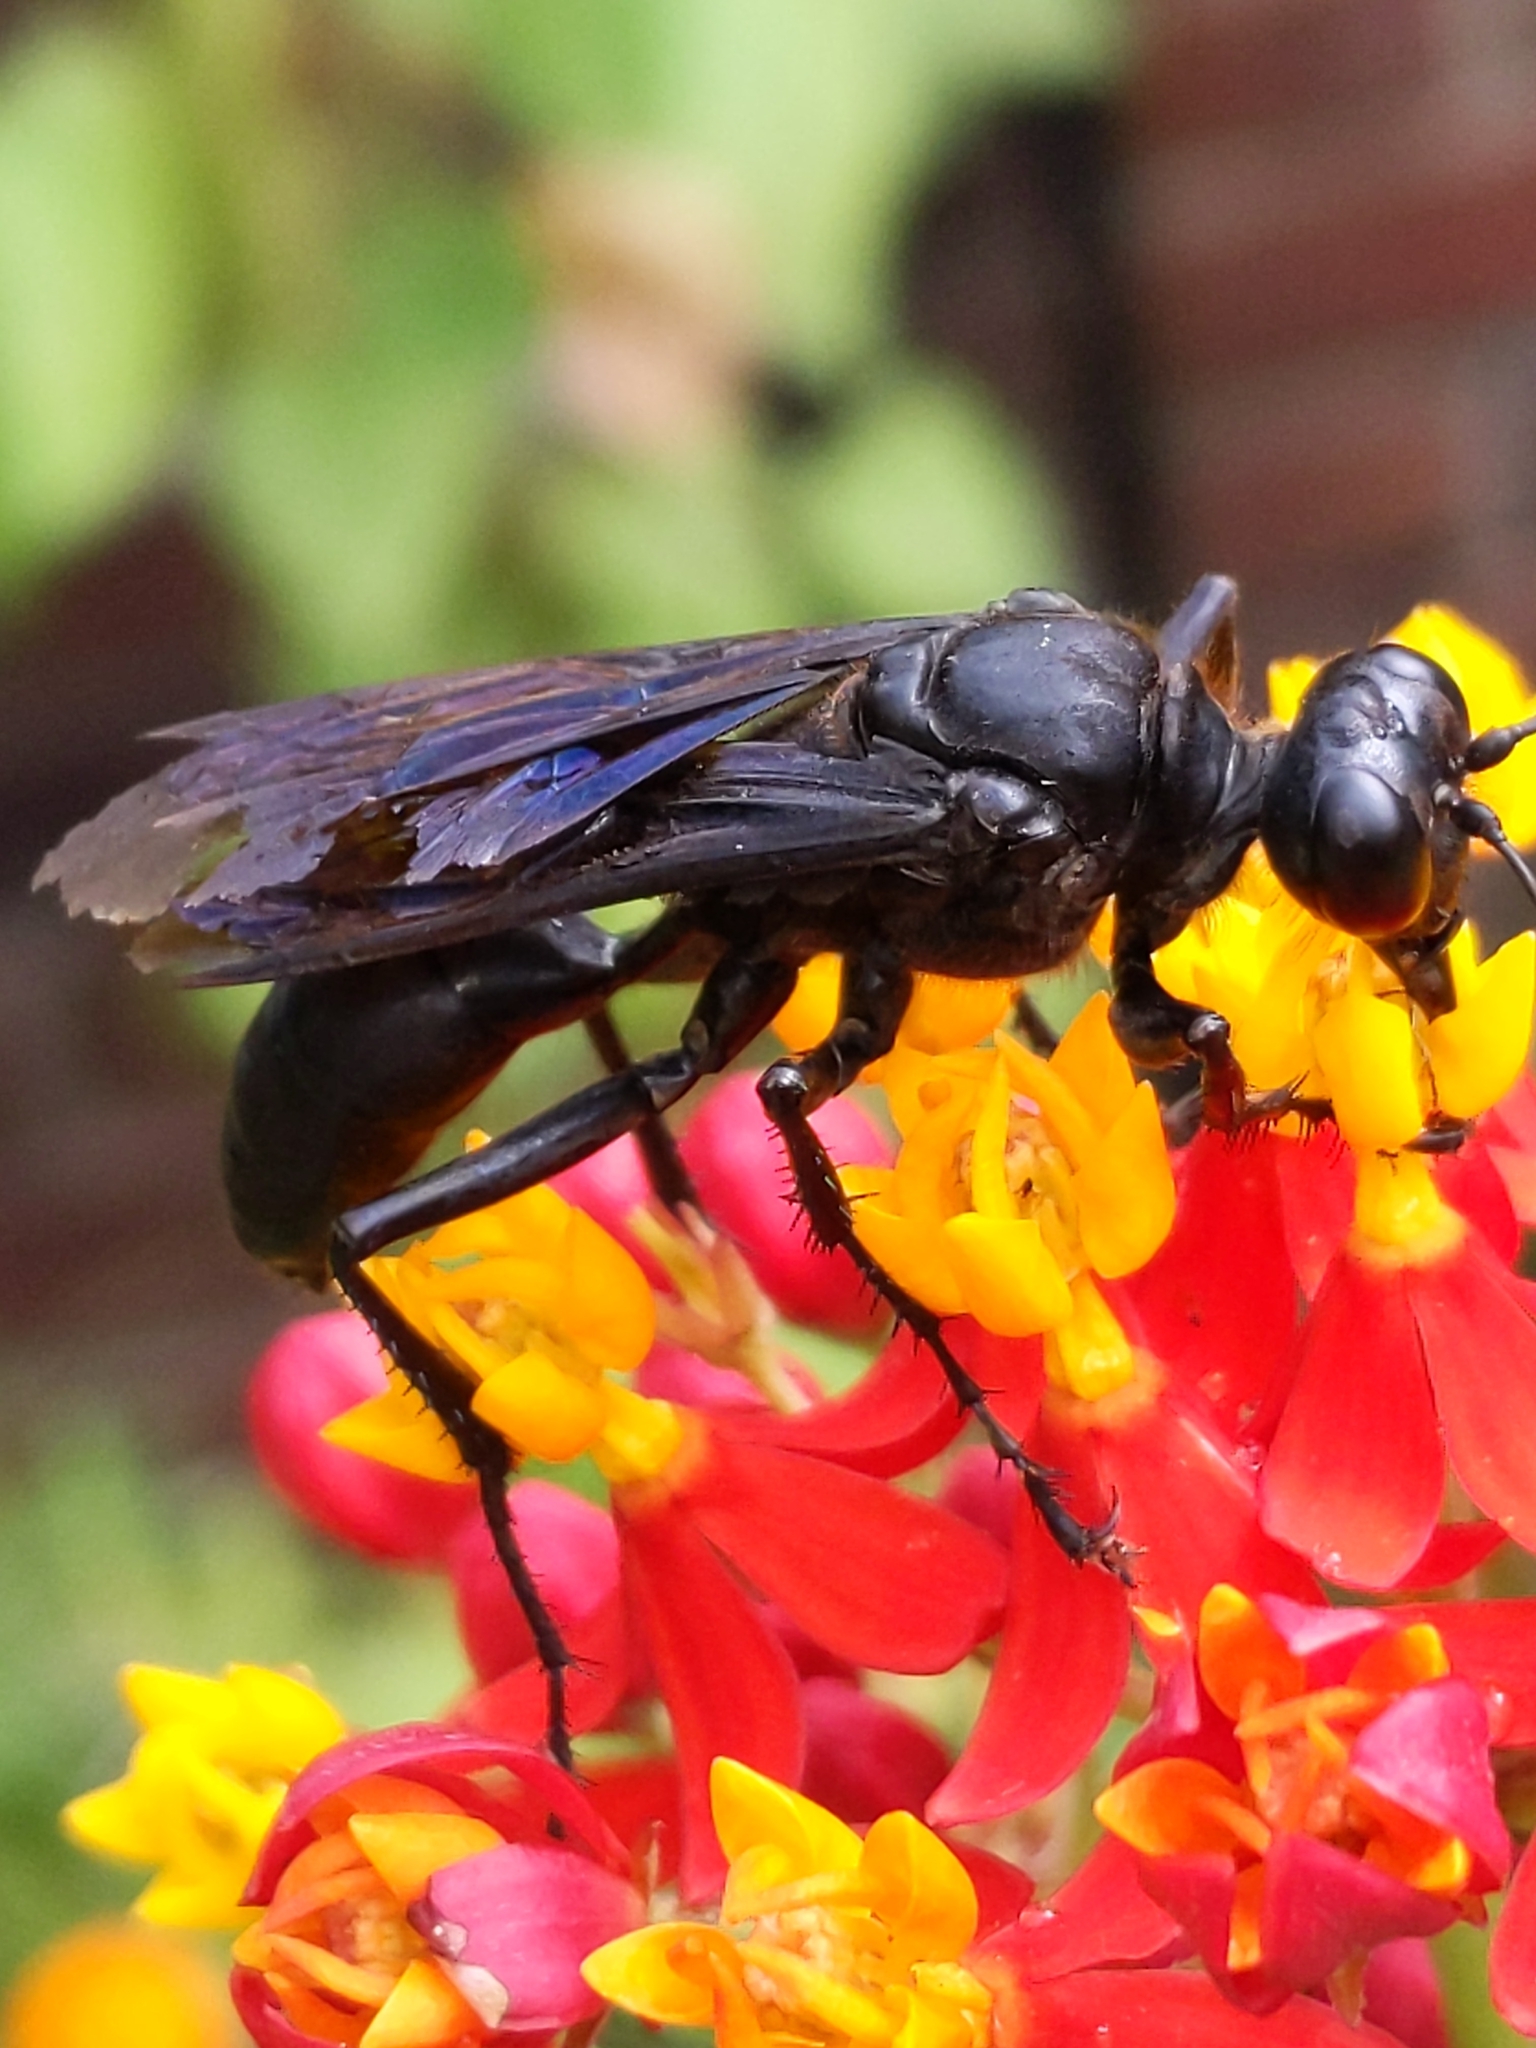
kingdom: Animalia
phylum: Arthropoda
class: Insecta
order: Hymenoptera
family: Sphecidae
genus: Sphex
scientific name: Sphex pensylvanicus
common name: Great black digger wasp
